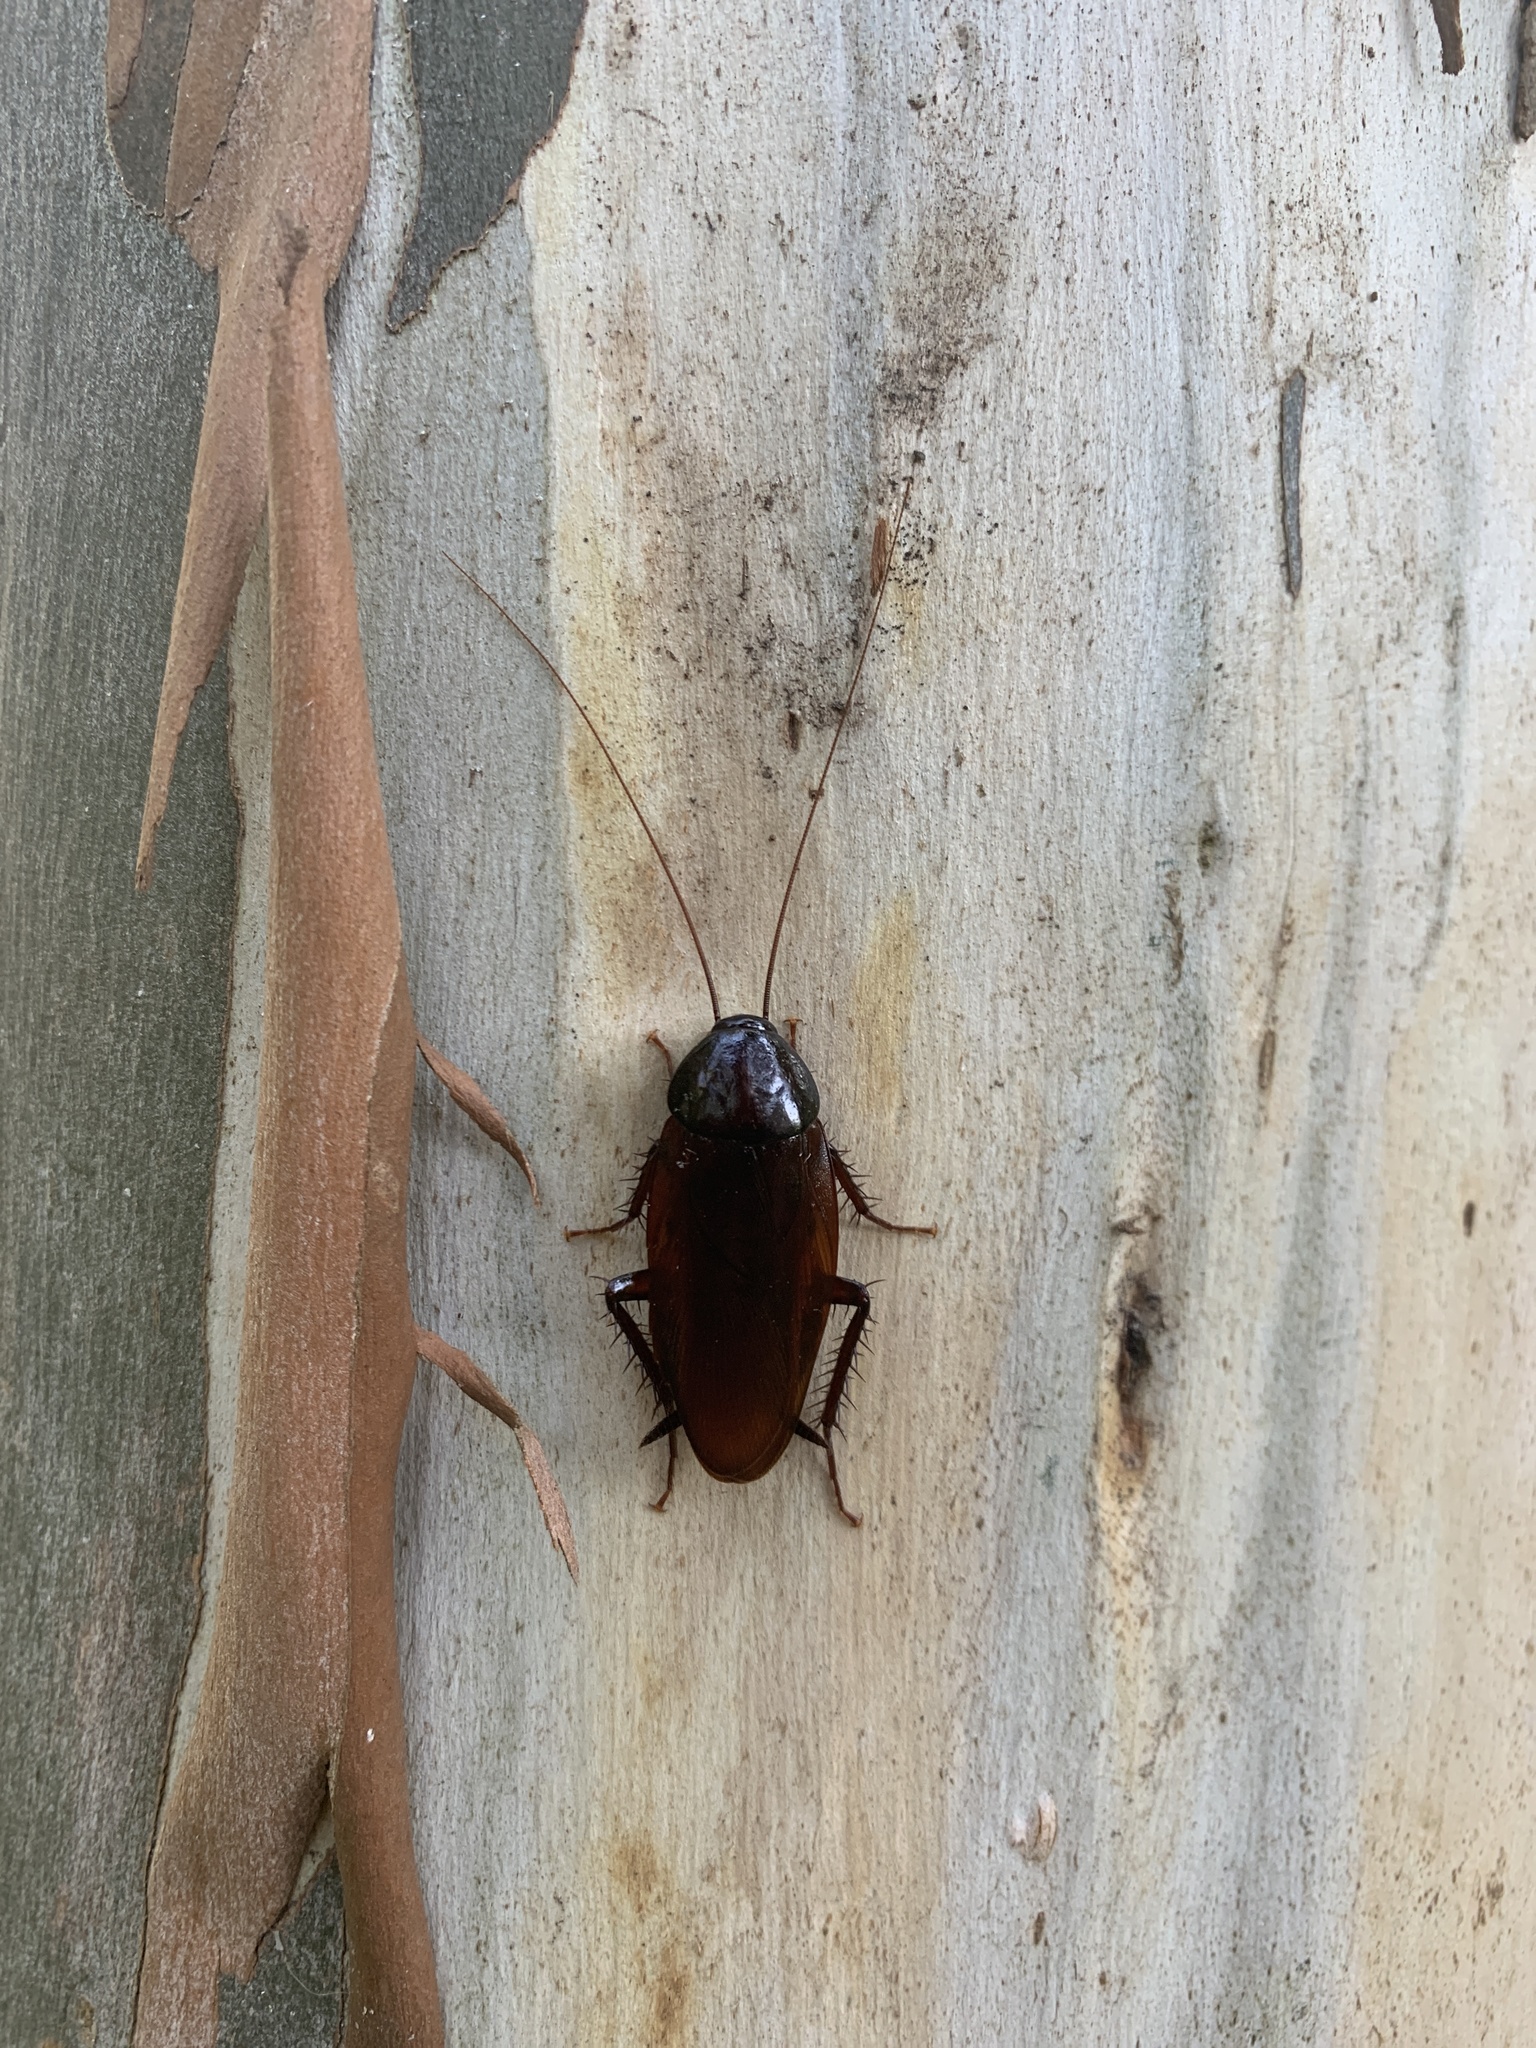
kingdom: Animalia
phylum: Arthropoda
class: Insecta
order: Blattodea
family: Blattidae
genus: Periplaneta
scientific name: Periplaneta fuliginosa
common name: Smokeybrown cockroad
